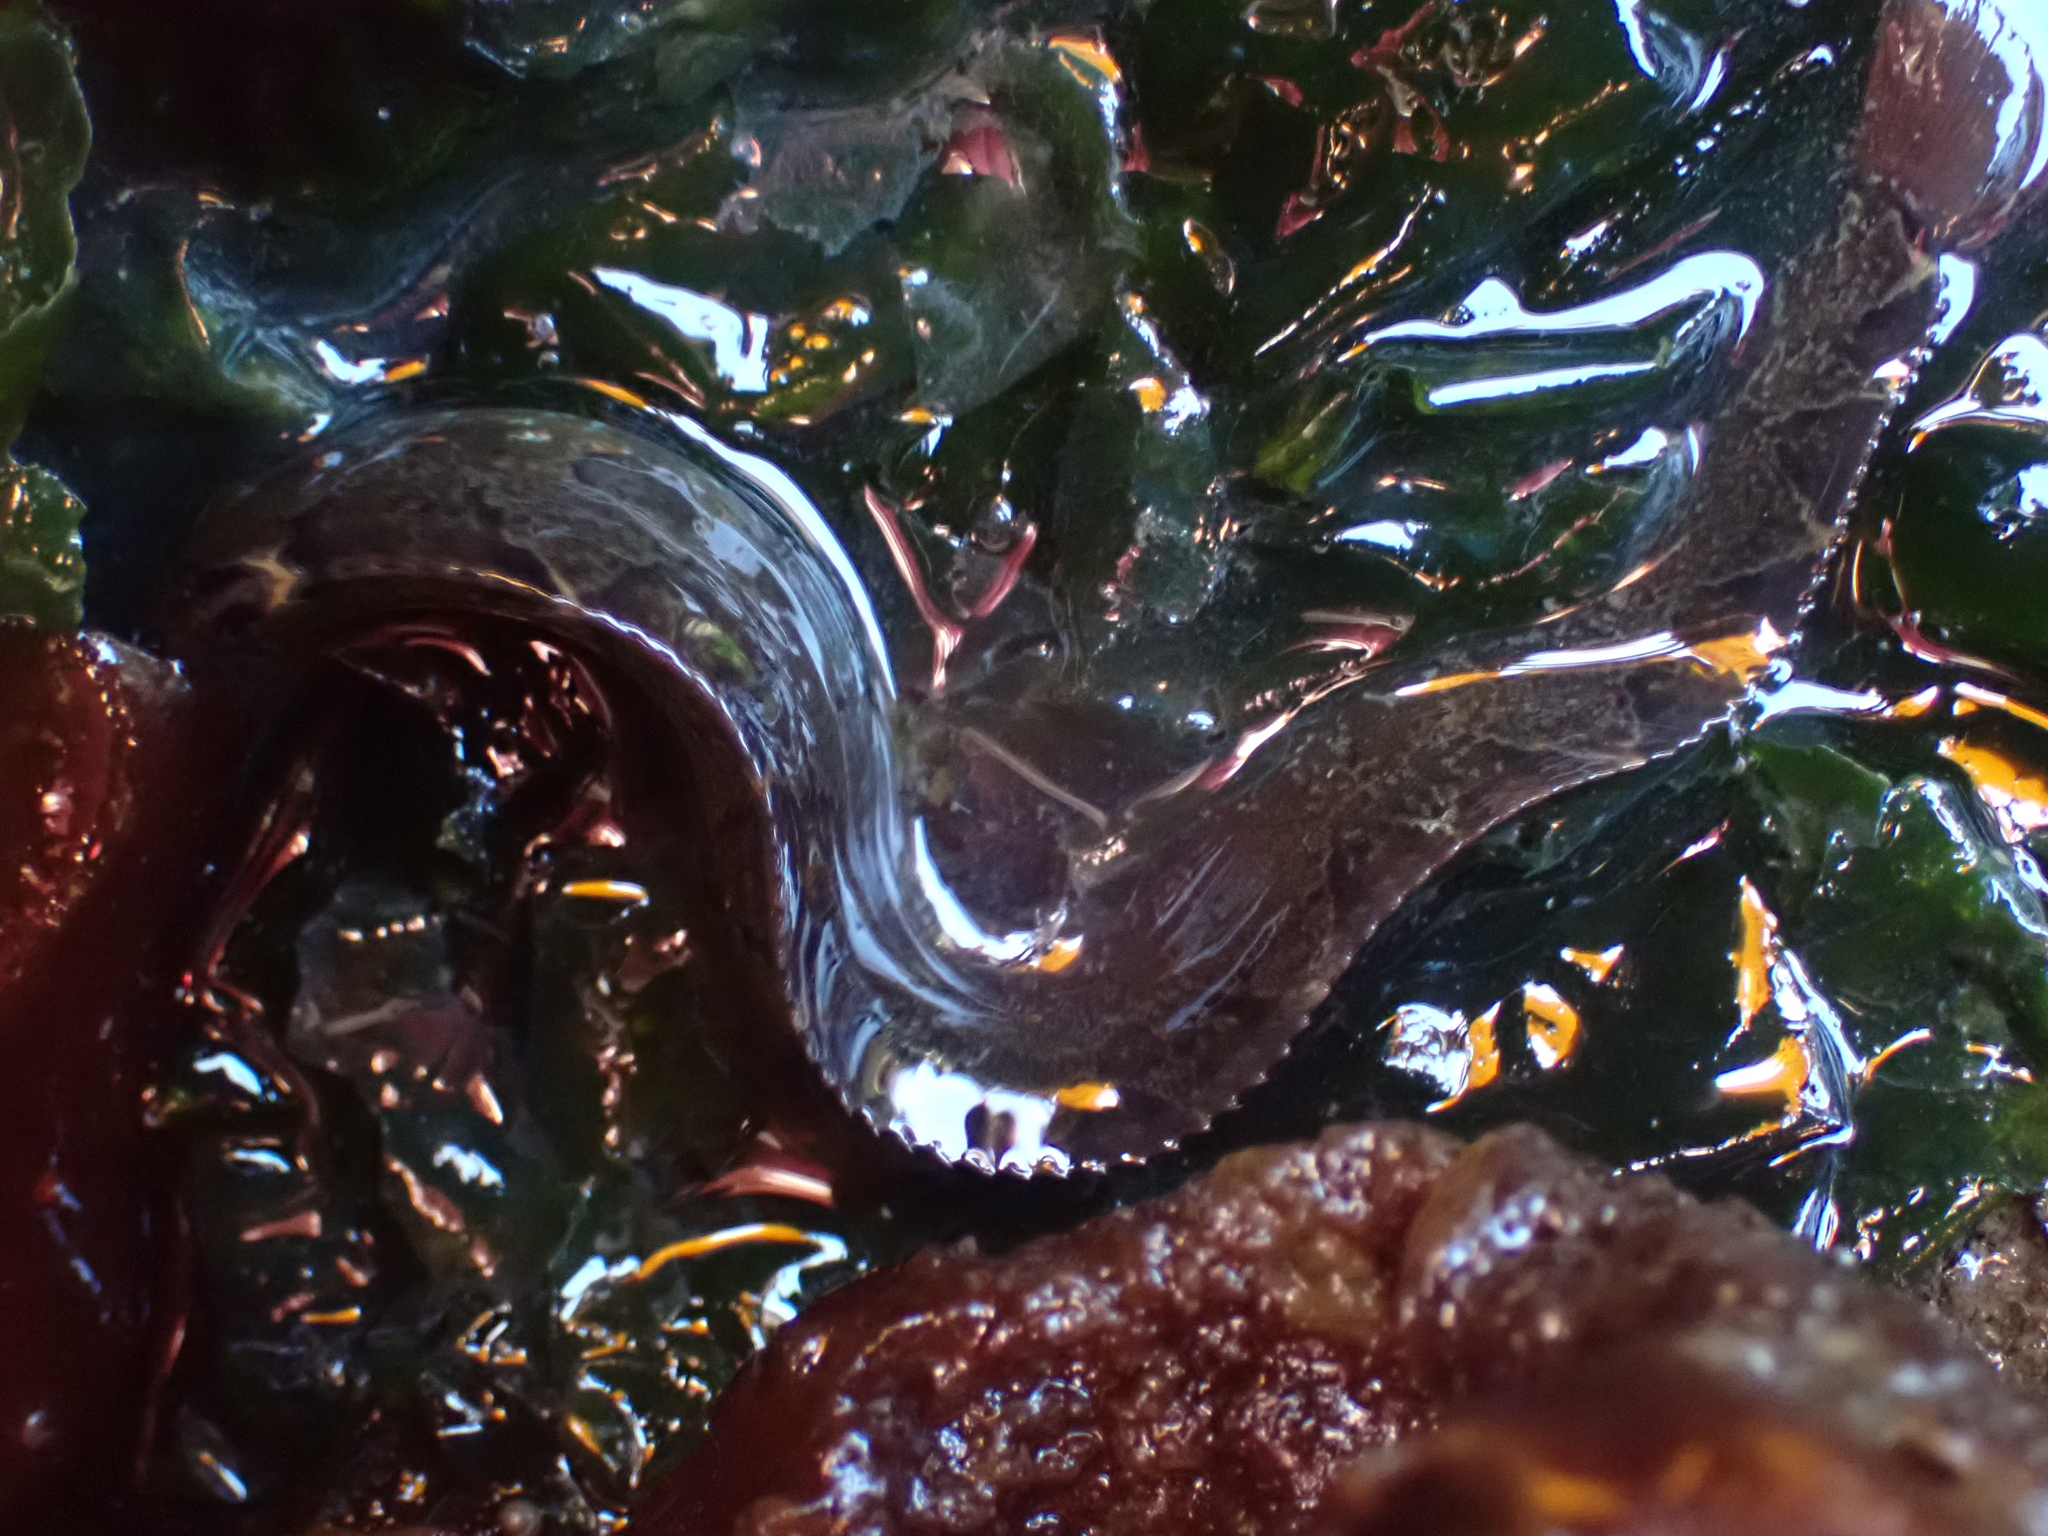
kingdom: Animalia
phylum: Chordata
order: Perciformes
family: Pholidae
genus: Pholis
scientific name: Pholis ornata
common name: Saddleback gunnel
